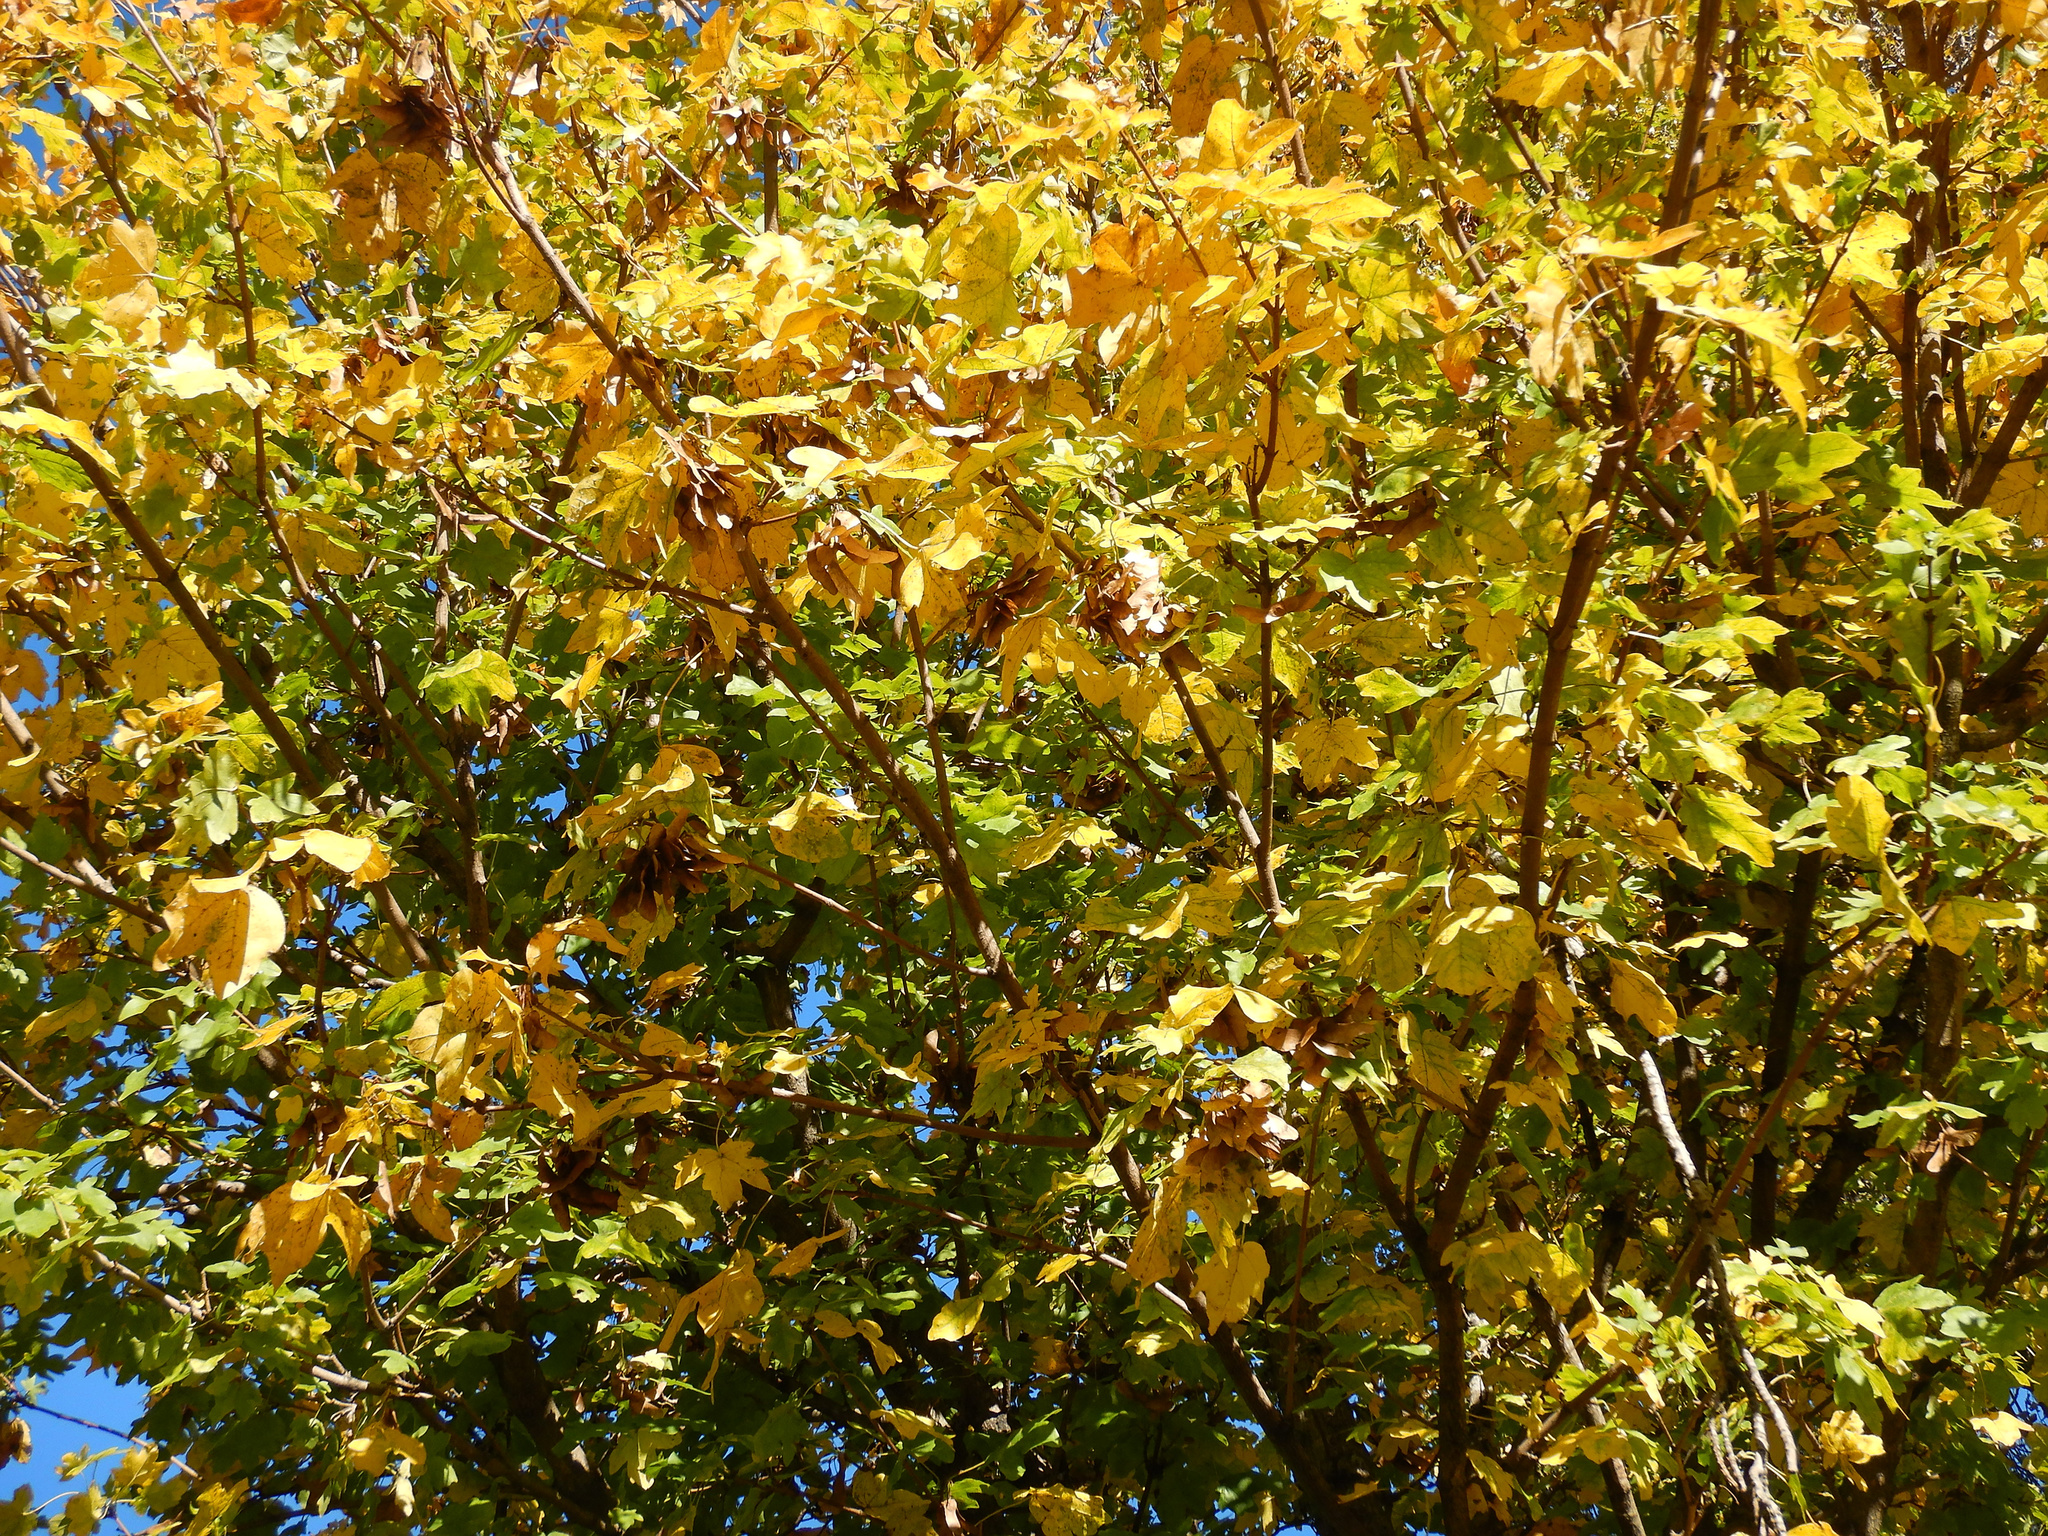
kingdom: Plantae
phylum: Tracheophyta
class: Magnoliopsida
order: Sapindales
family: Sapindaceae
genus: Acer
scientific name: Acer pseudoplatanus
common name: Sycamore
